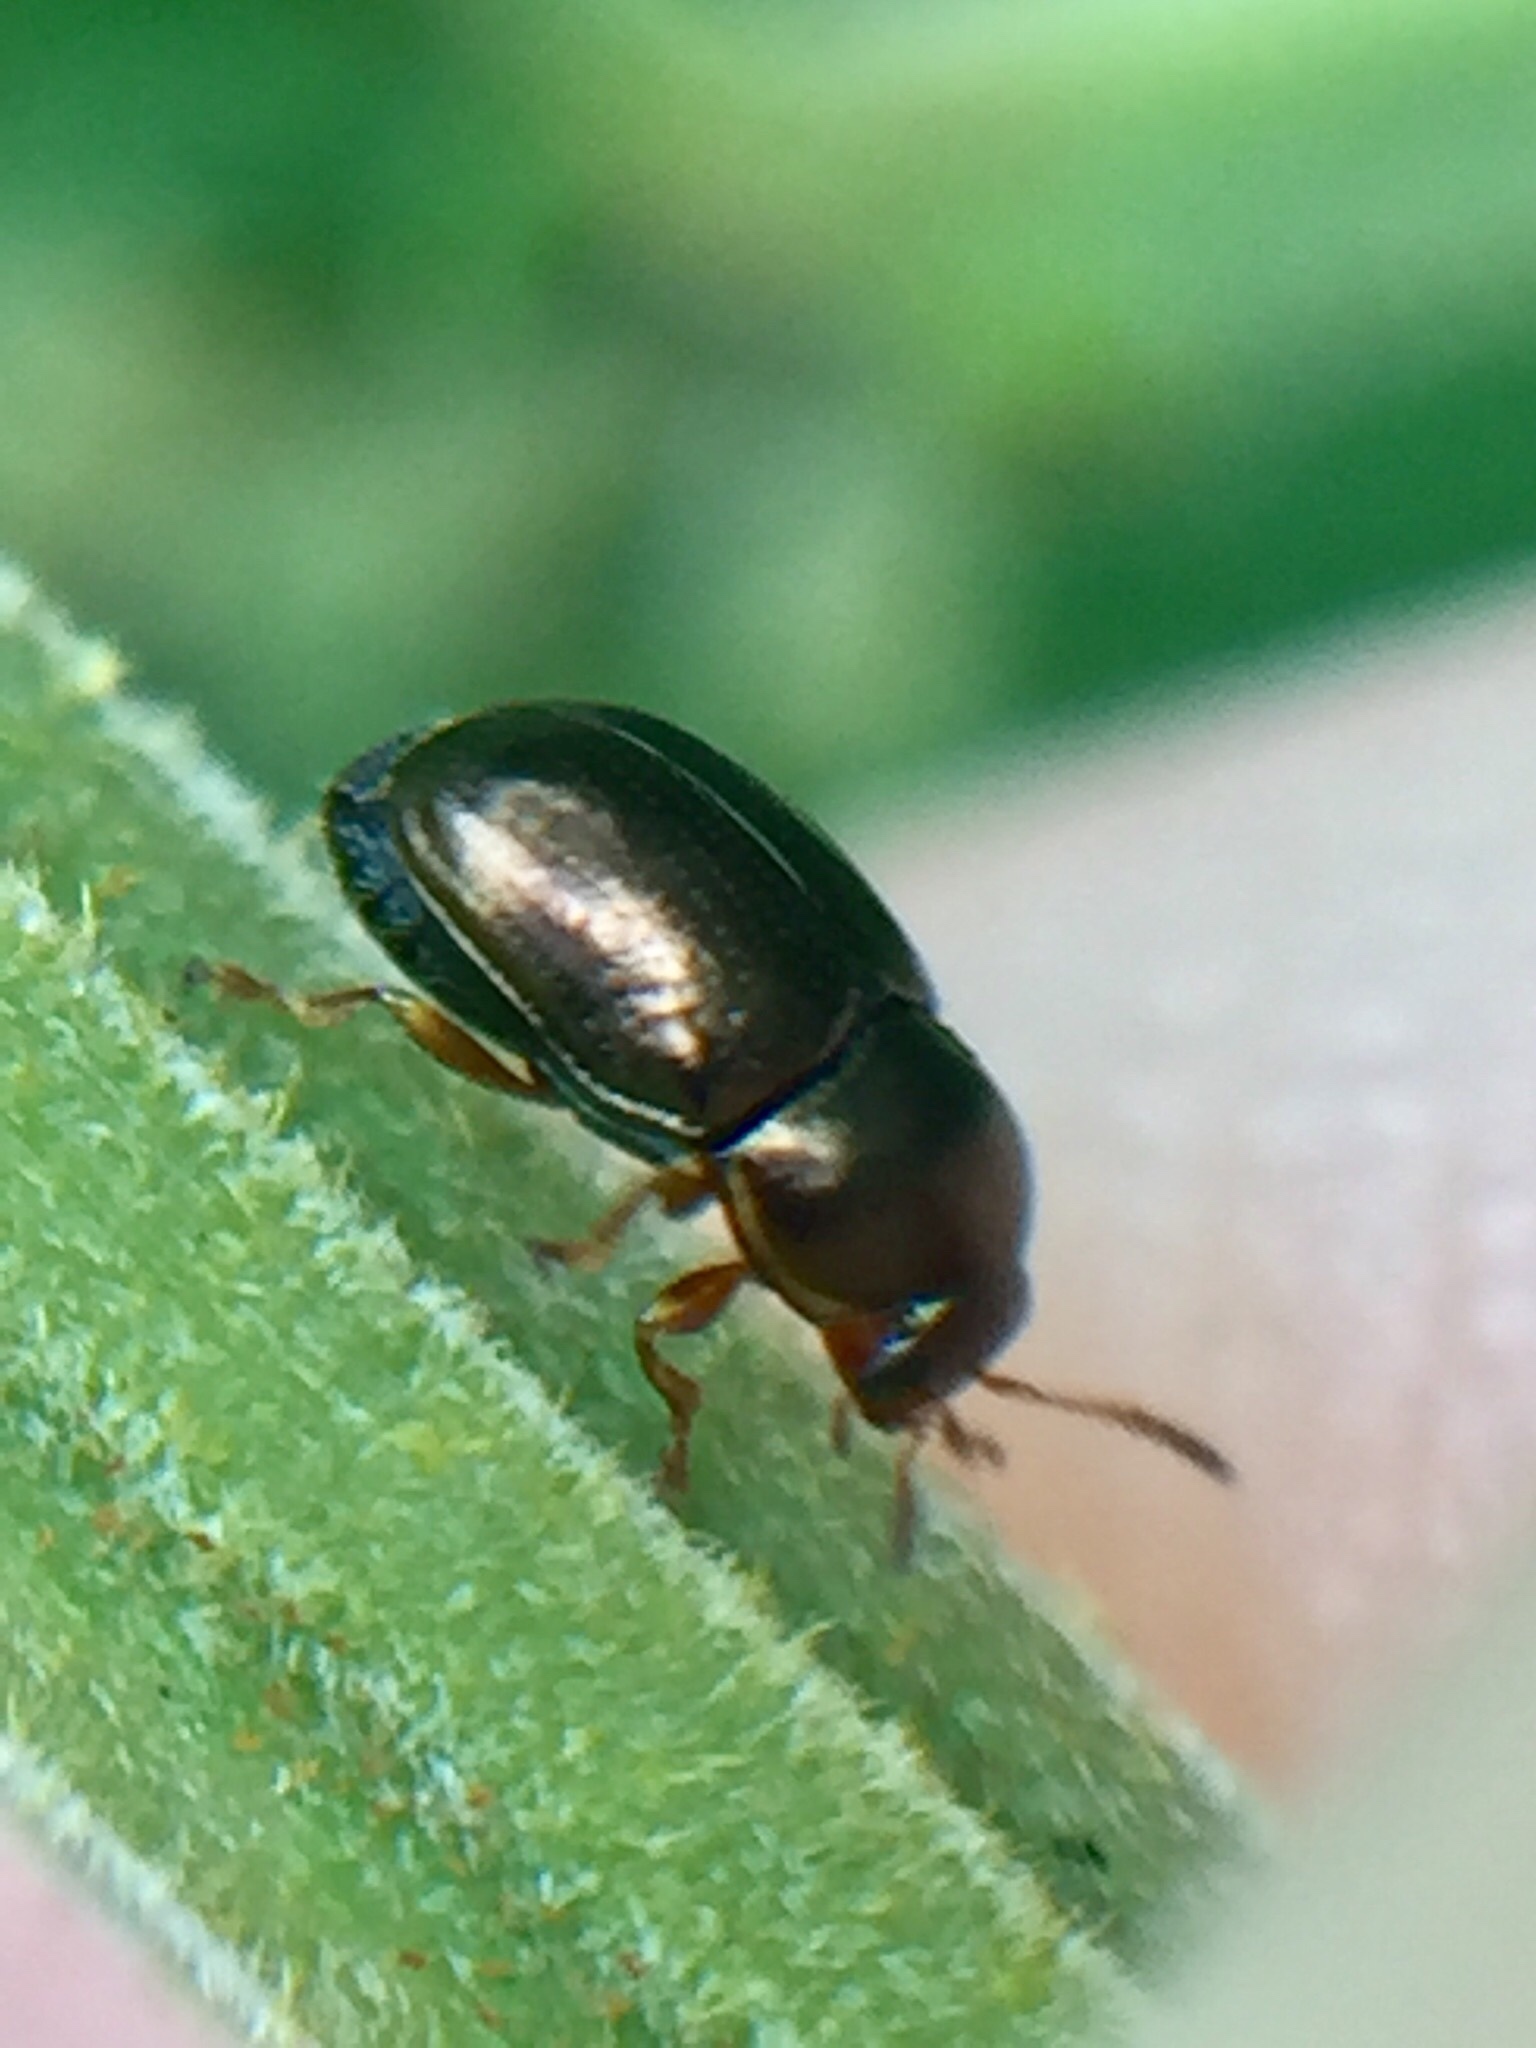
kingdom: Animalia
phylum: Arthropoda
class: Insecta
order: Coleoptera
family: Chrysomelidae
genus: Diachus
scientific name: Diachus auratus
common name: Bronze leaf beetle
